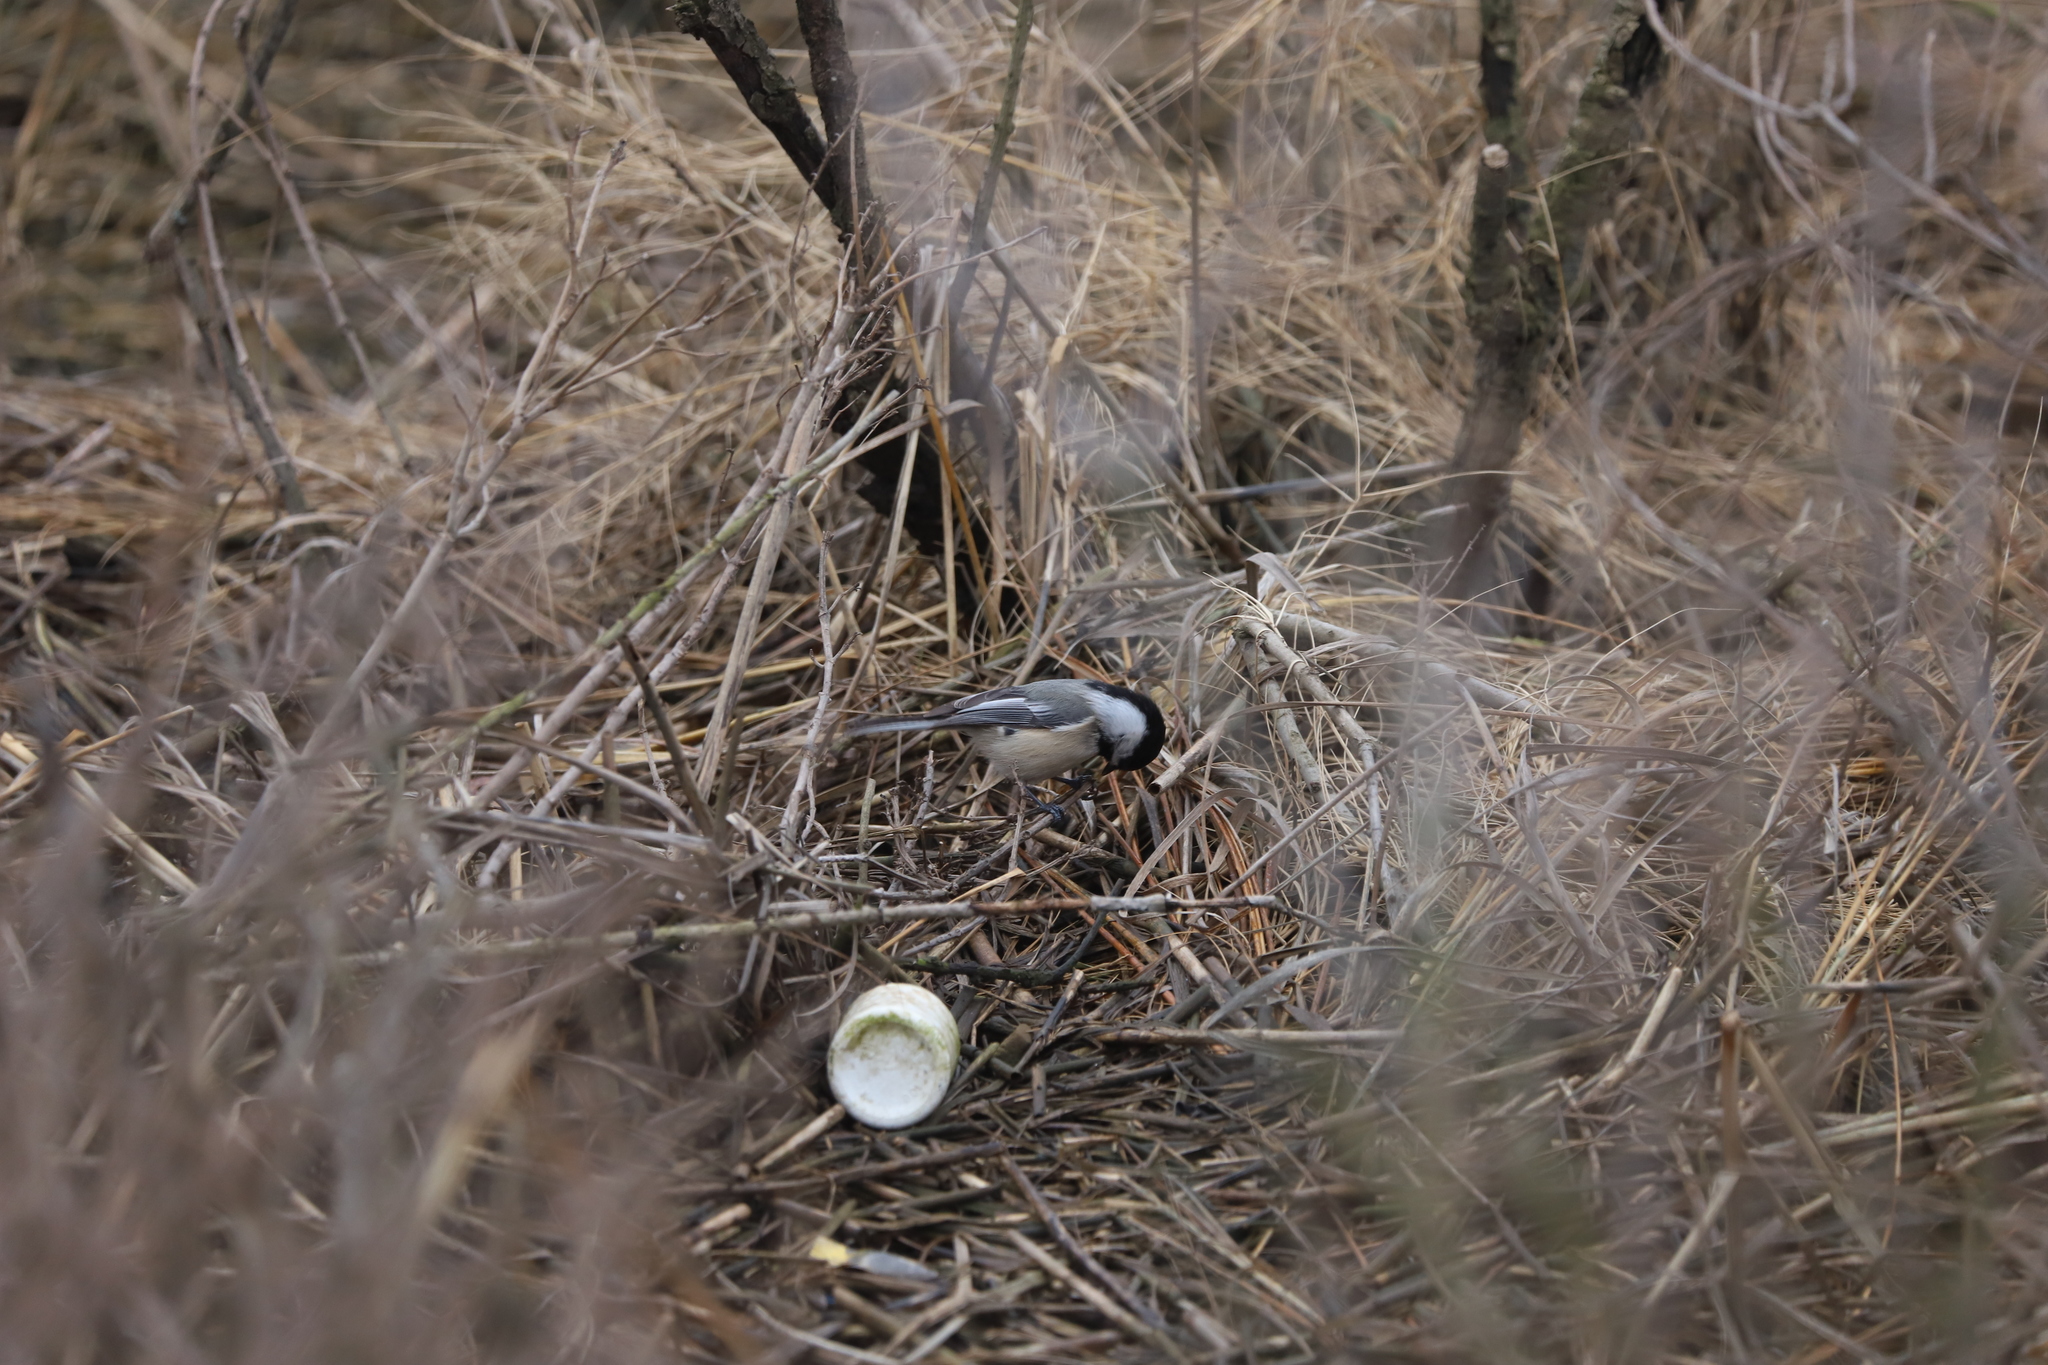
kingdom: Animalia
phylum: Chordata
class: Aves
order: Passeriformes
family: Paridae
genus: Poecile
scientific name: Poecile atricapillus
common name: Black-capped chickadee
